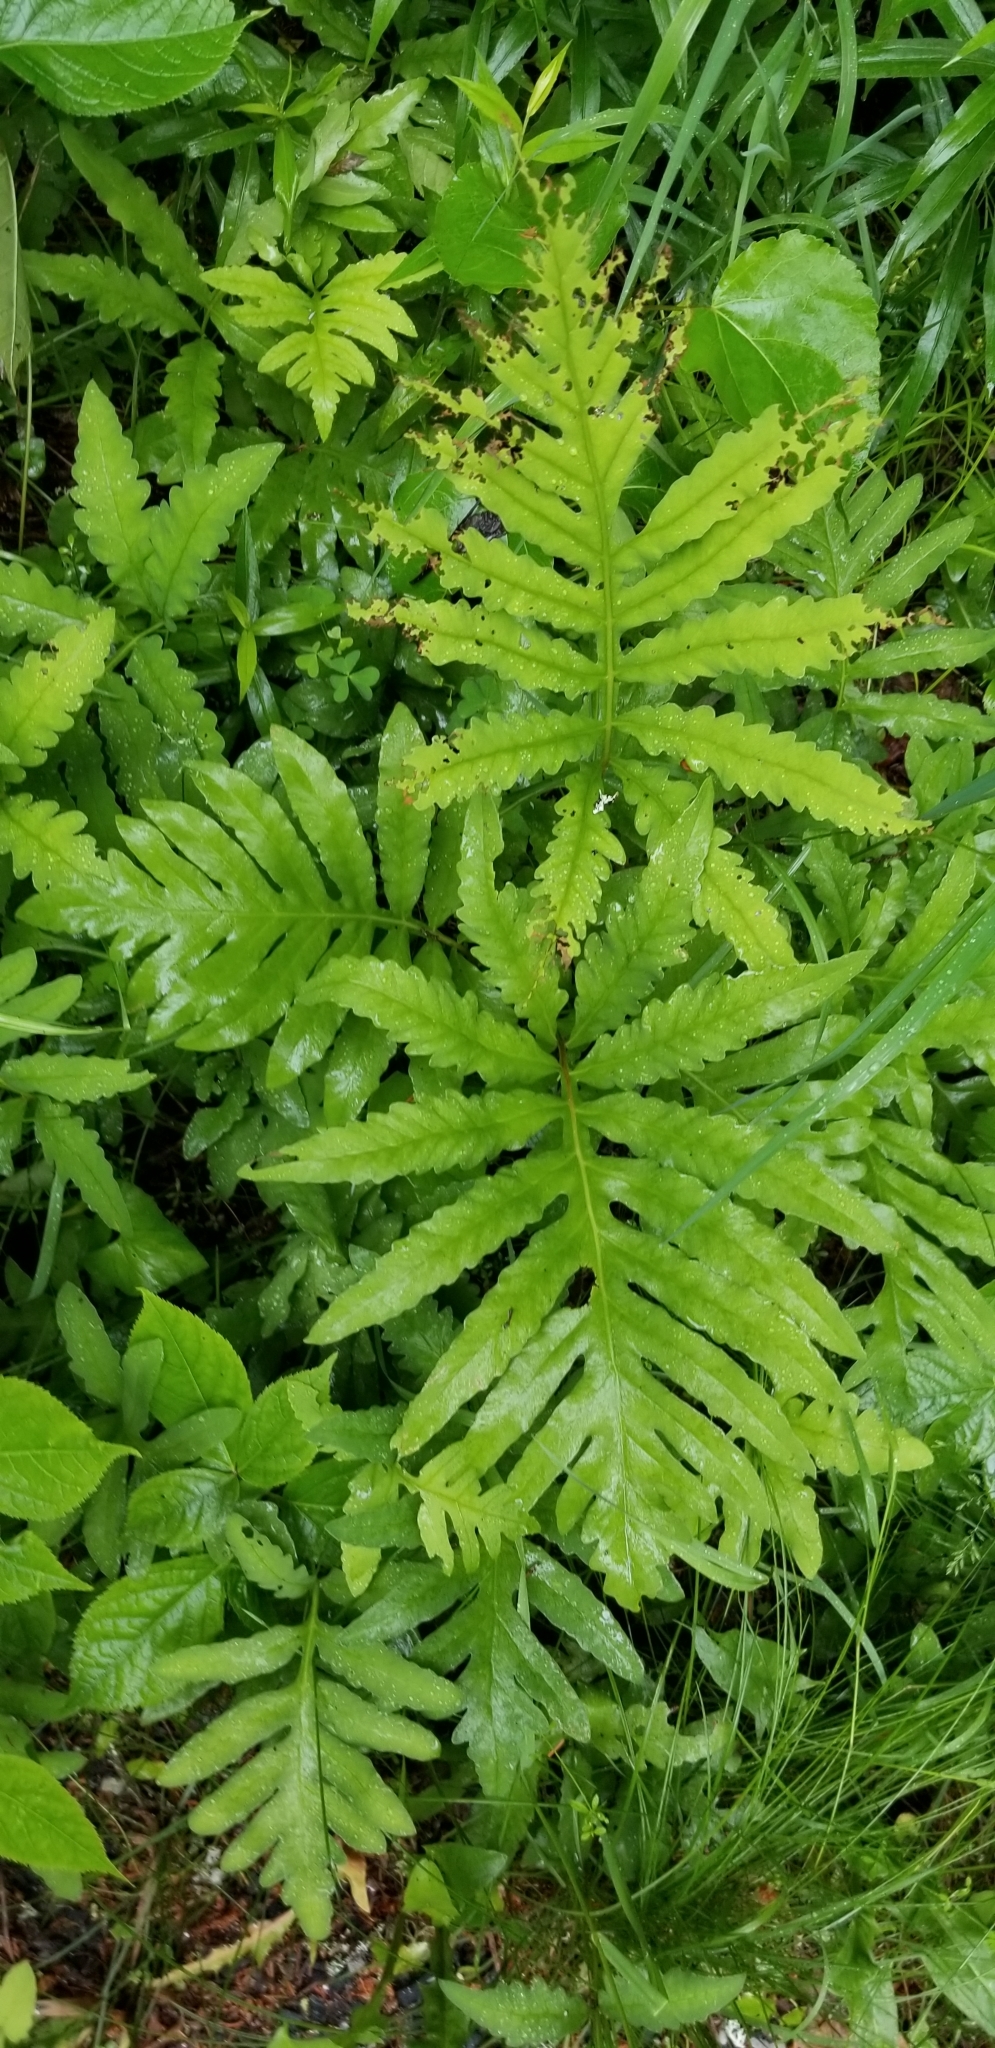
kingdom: Plantae
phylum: Tracheophyta
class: Polypodiopsida
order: Polypodiales
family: Onocleaceae
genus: Onoclea
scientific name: Onoclea sensibilis
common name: Sensitive fern
